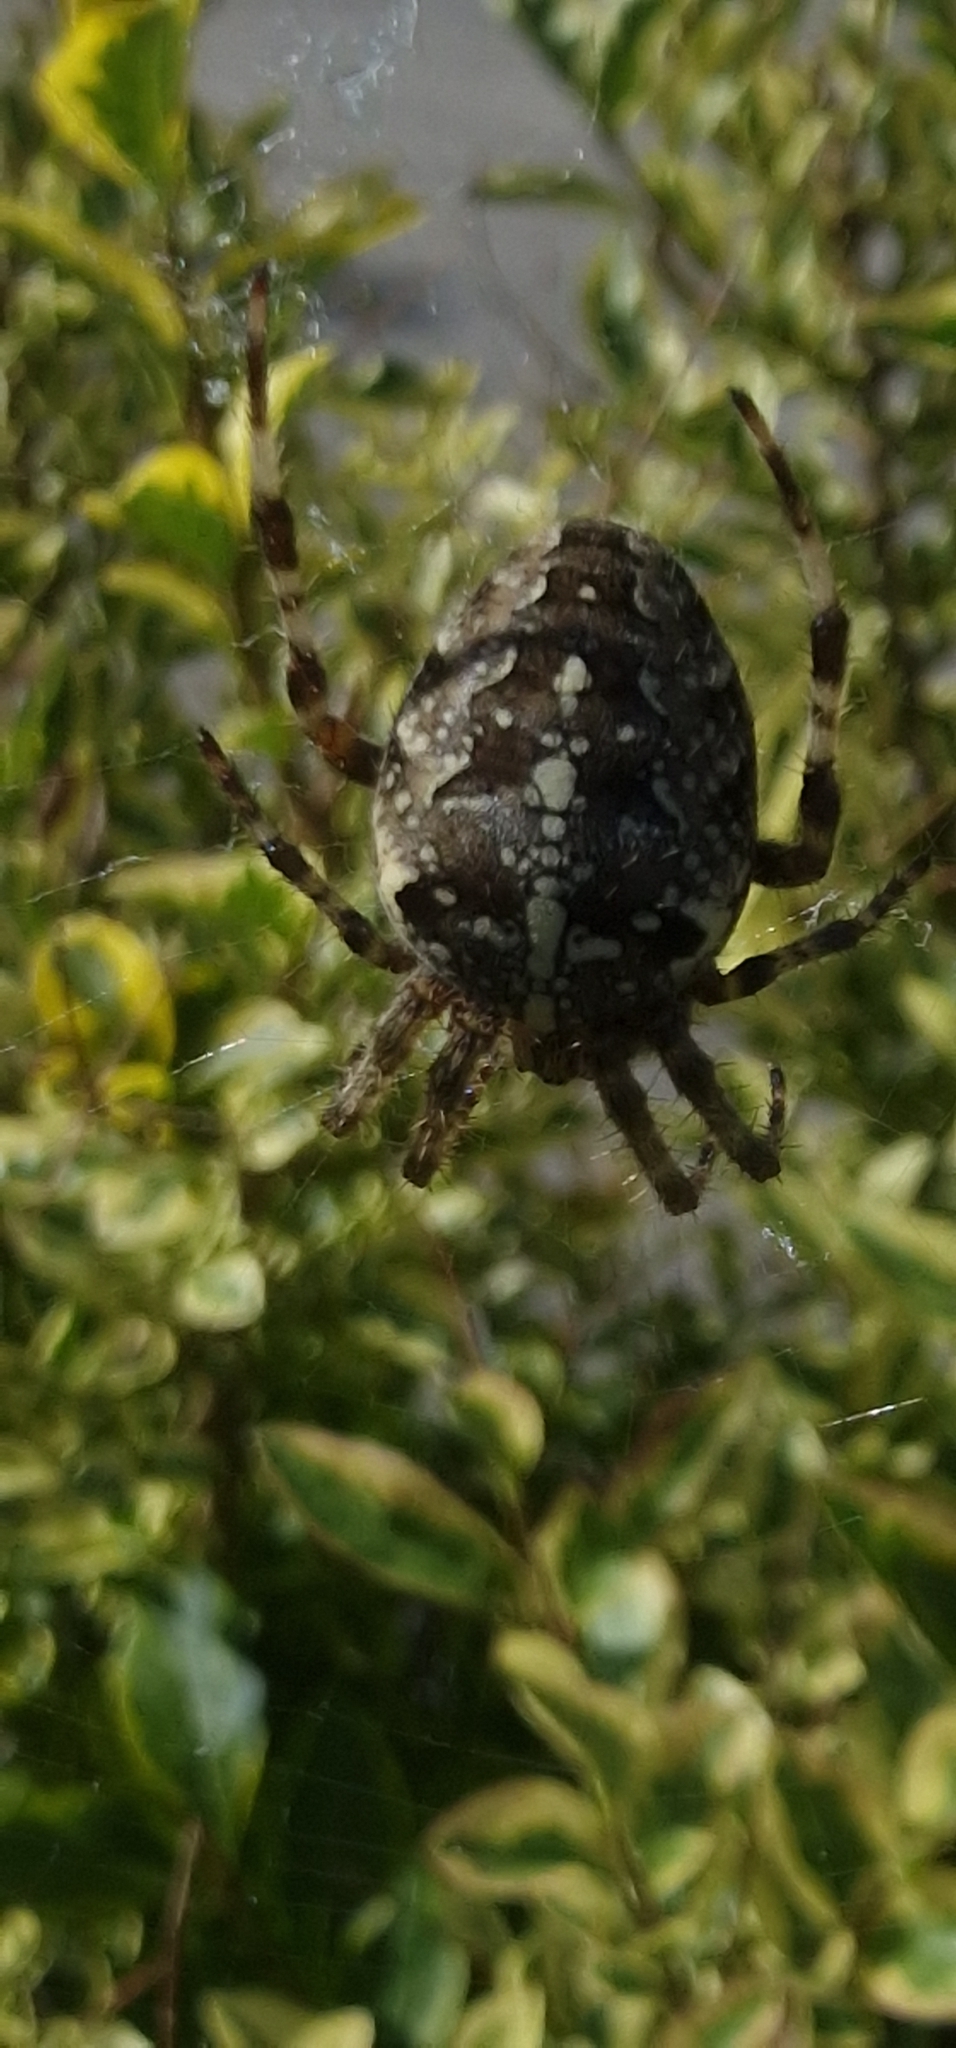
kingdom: Animalia
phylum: Arthropoda
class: Arachnida
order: Araneae
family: Araneidae
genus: Araneus
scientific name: Araneus diadematus
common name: Cross orbweaver
